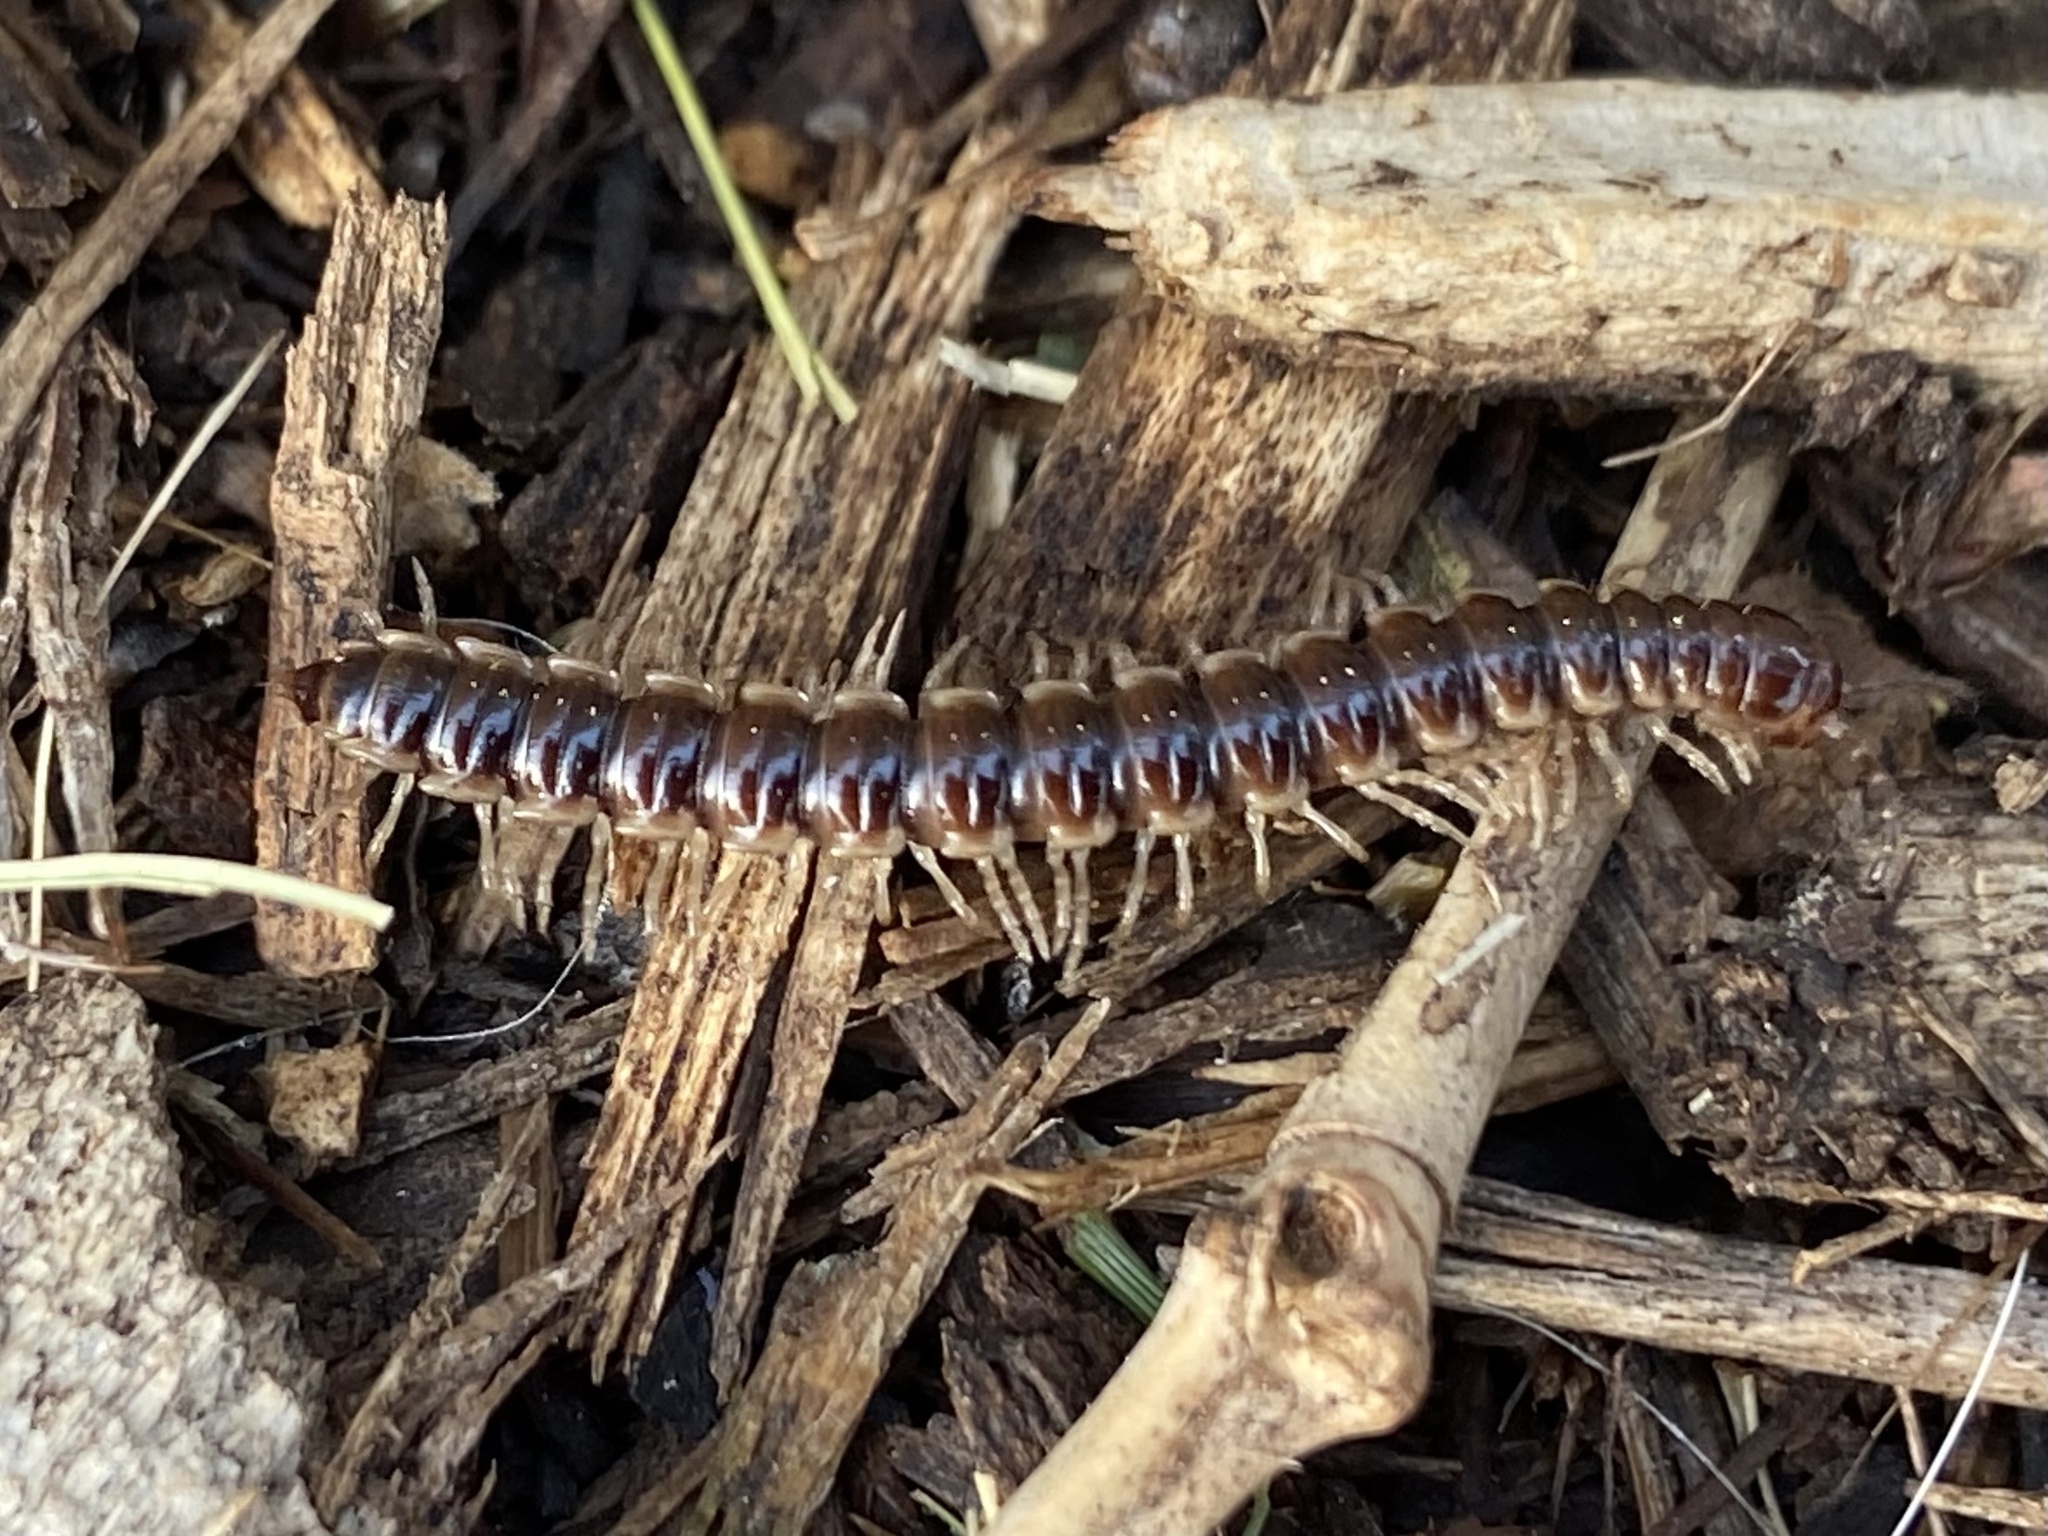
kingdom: Animalia
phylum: Arthropoda
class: Diplopoda
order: Polydesmida
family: Paradoxosomatidae
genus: Oxidus
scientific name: Oxidus gracilis
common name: Greenhouse millipede
